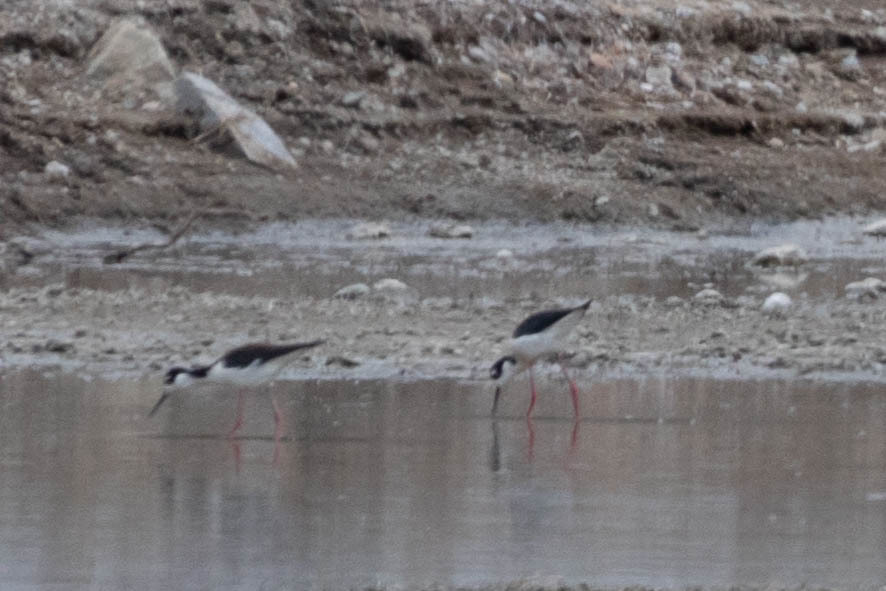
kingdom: Animalia
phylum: Chordata
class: Aves
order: Charadriiformes
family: Recurvirostridae
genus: Himantopus
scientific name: Himantopus mexicanus
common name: Black-necked stilt
